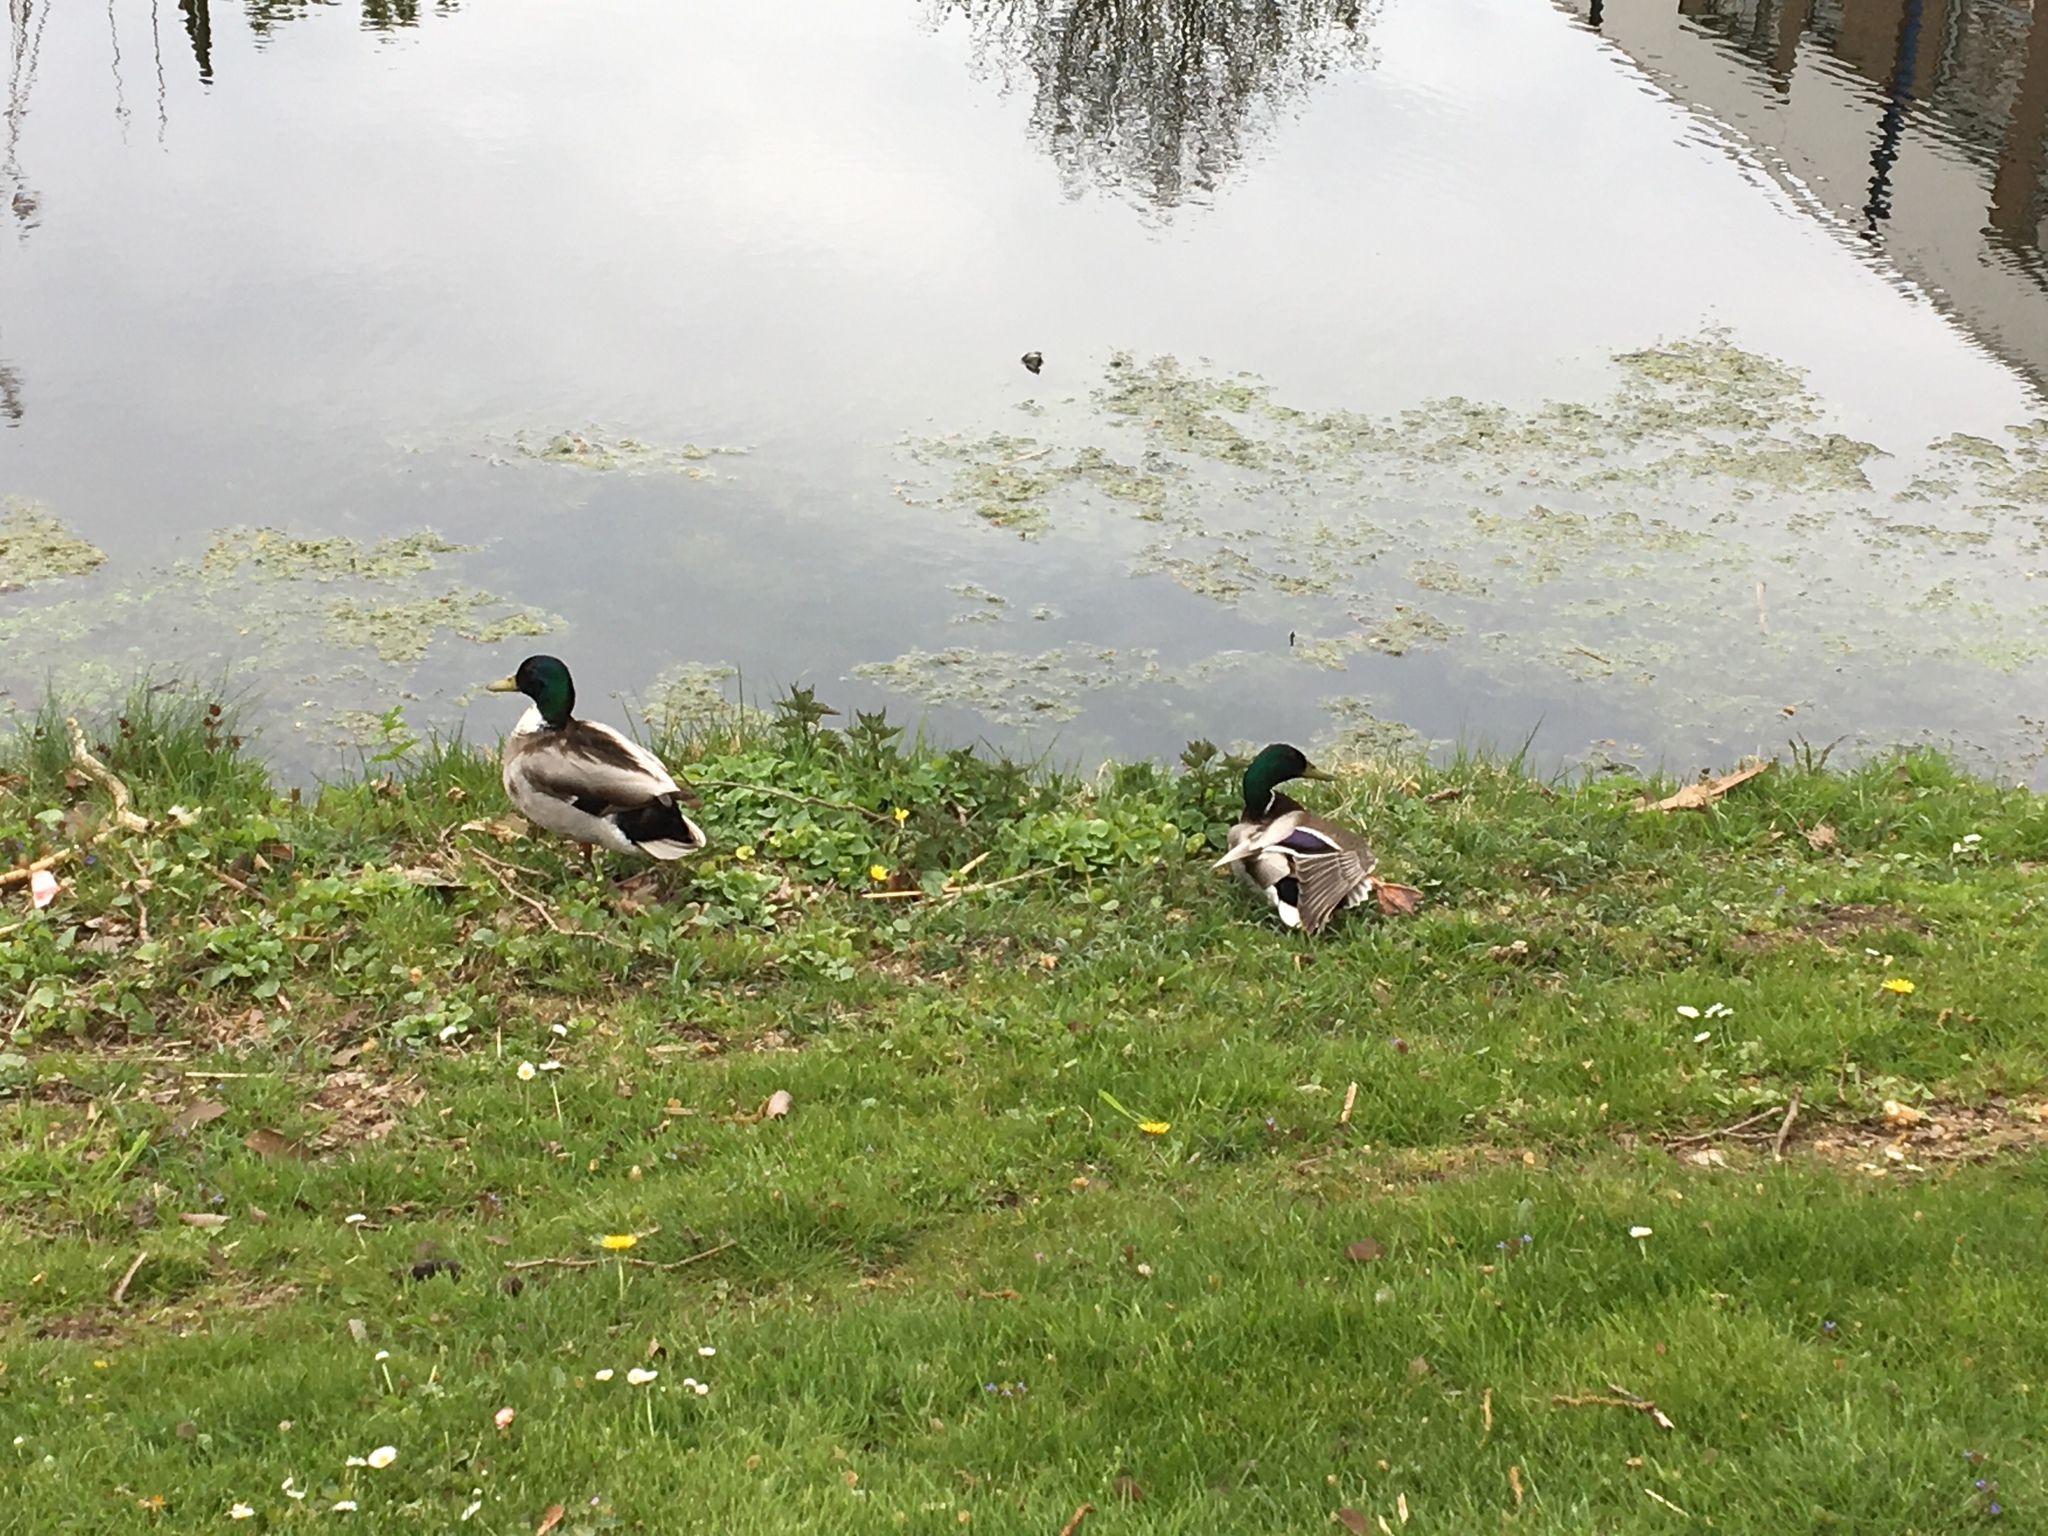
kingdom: Animalia
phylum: Chordata
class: Aves
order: Anseriformes
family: Anatidae
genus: Anas
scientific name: Anas platyrhynchos
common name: Mallard
